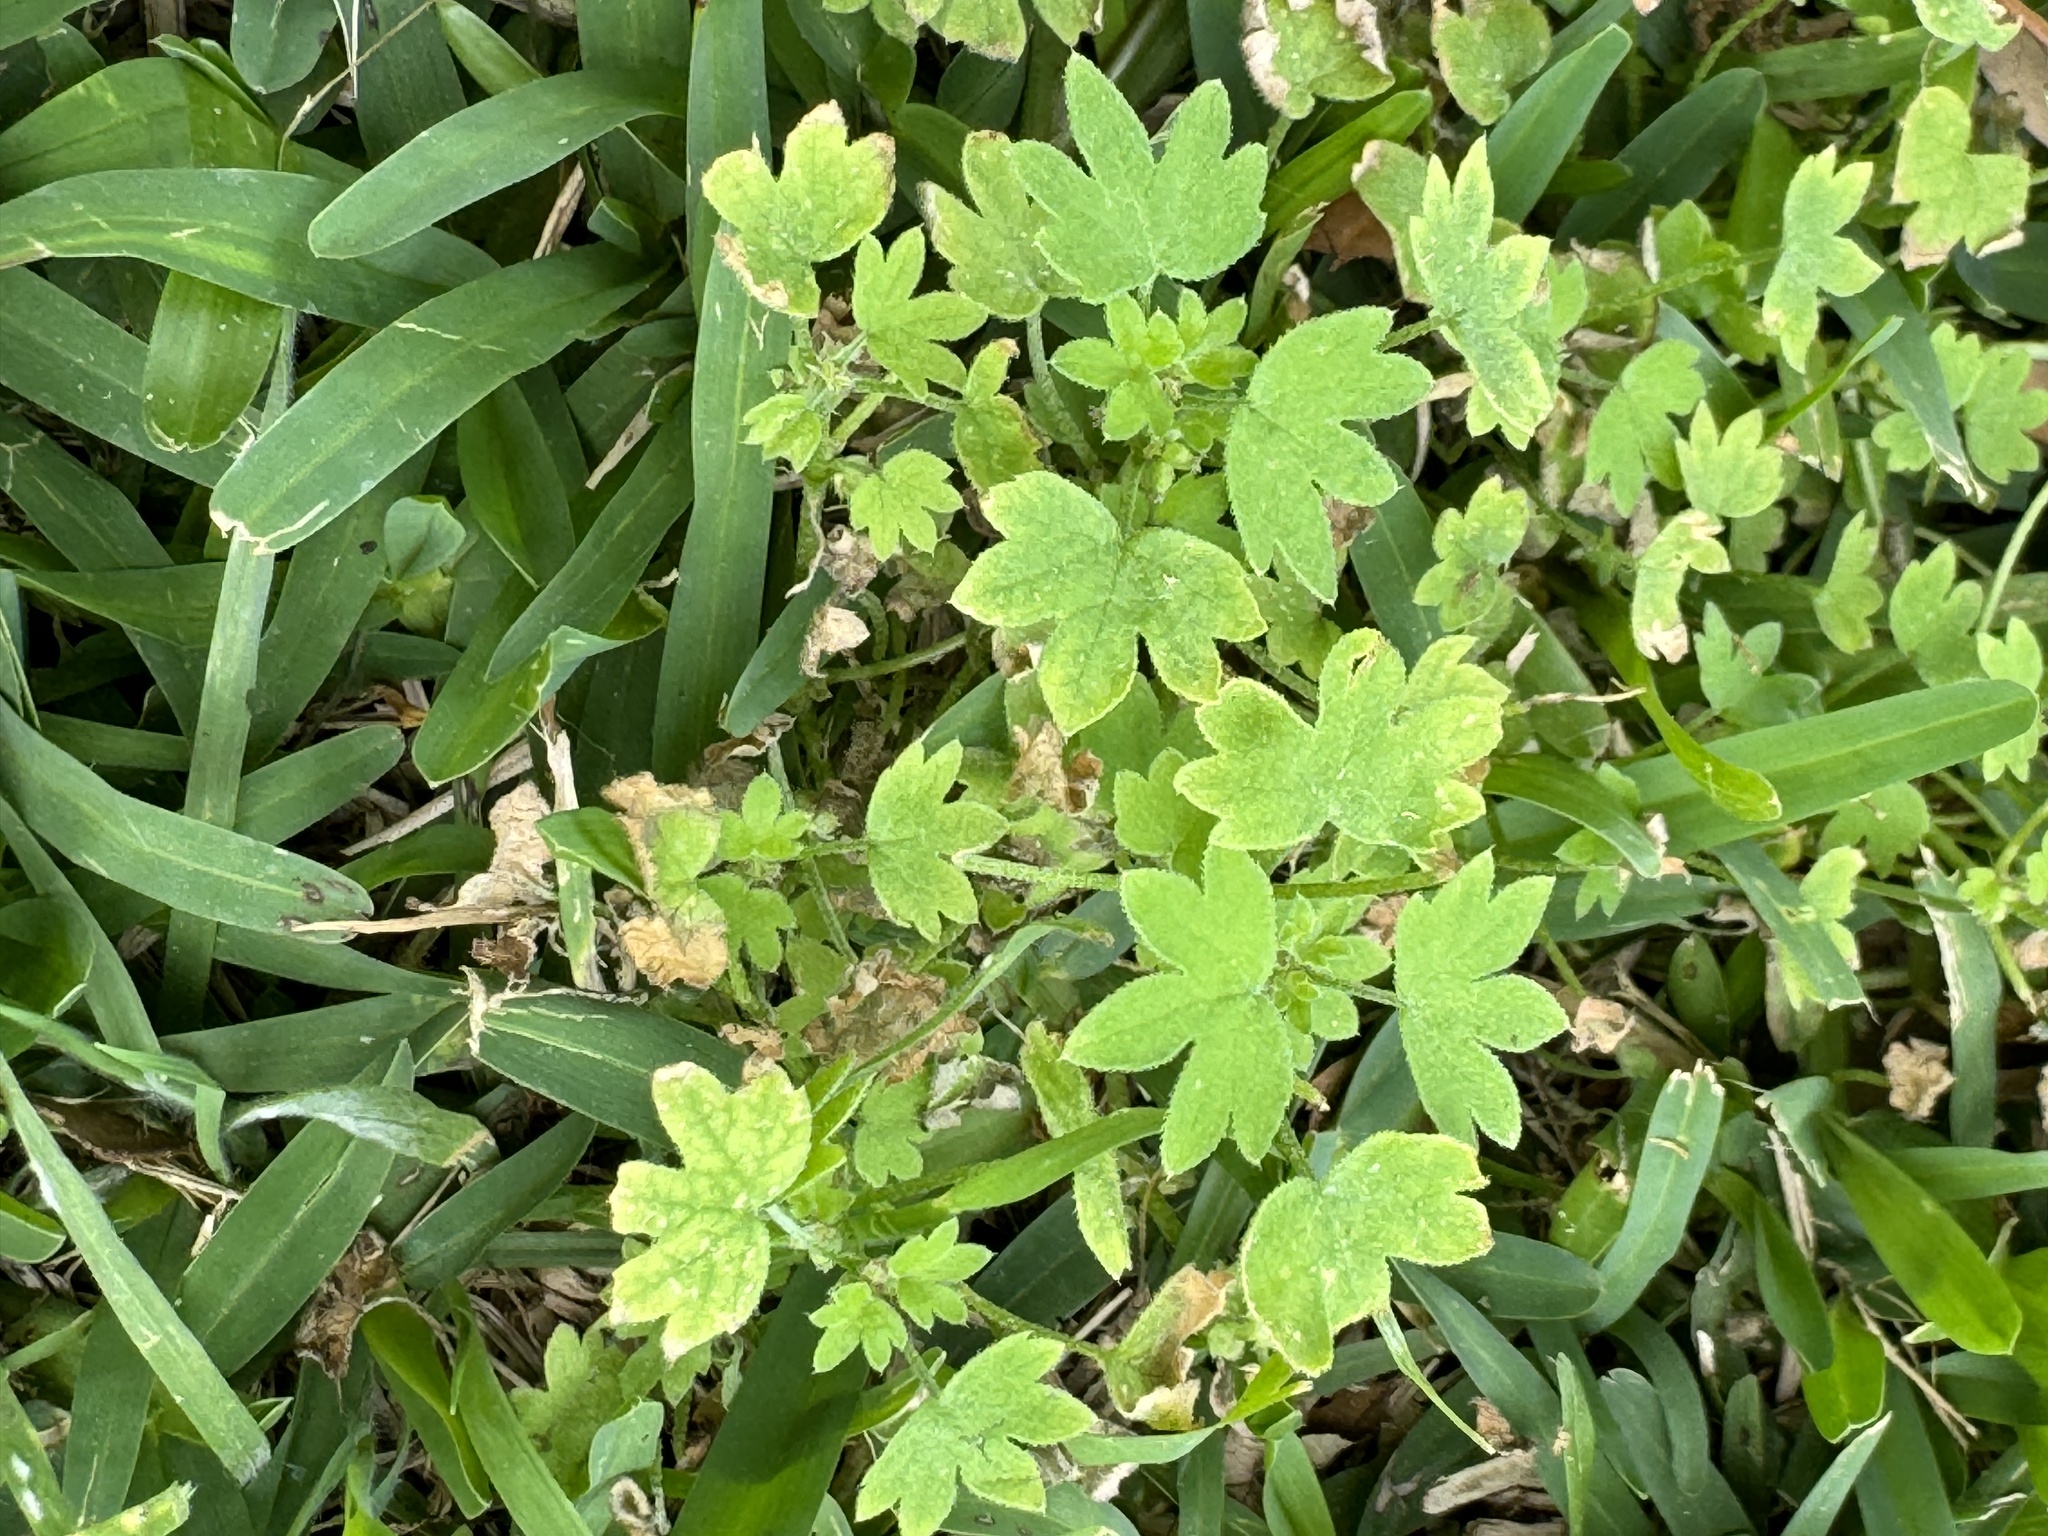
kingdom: Plantae
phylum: Tracheophyta
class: Magnoliopsida
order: Apiales
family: Apiaceae
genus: Bowlesia
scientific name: Bowlesia incana
